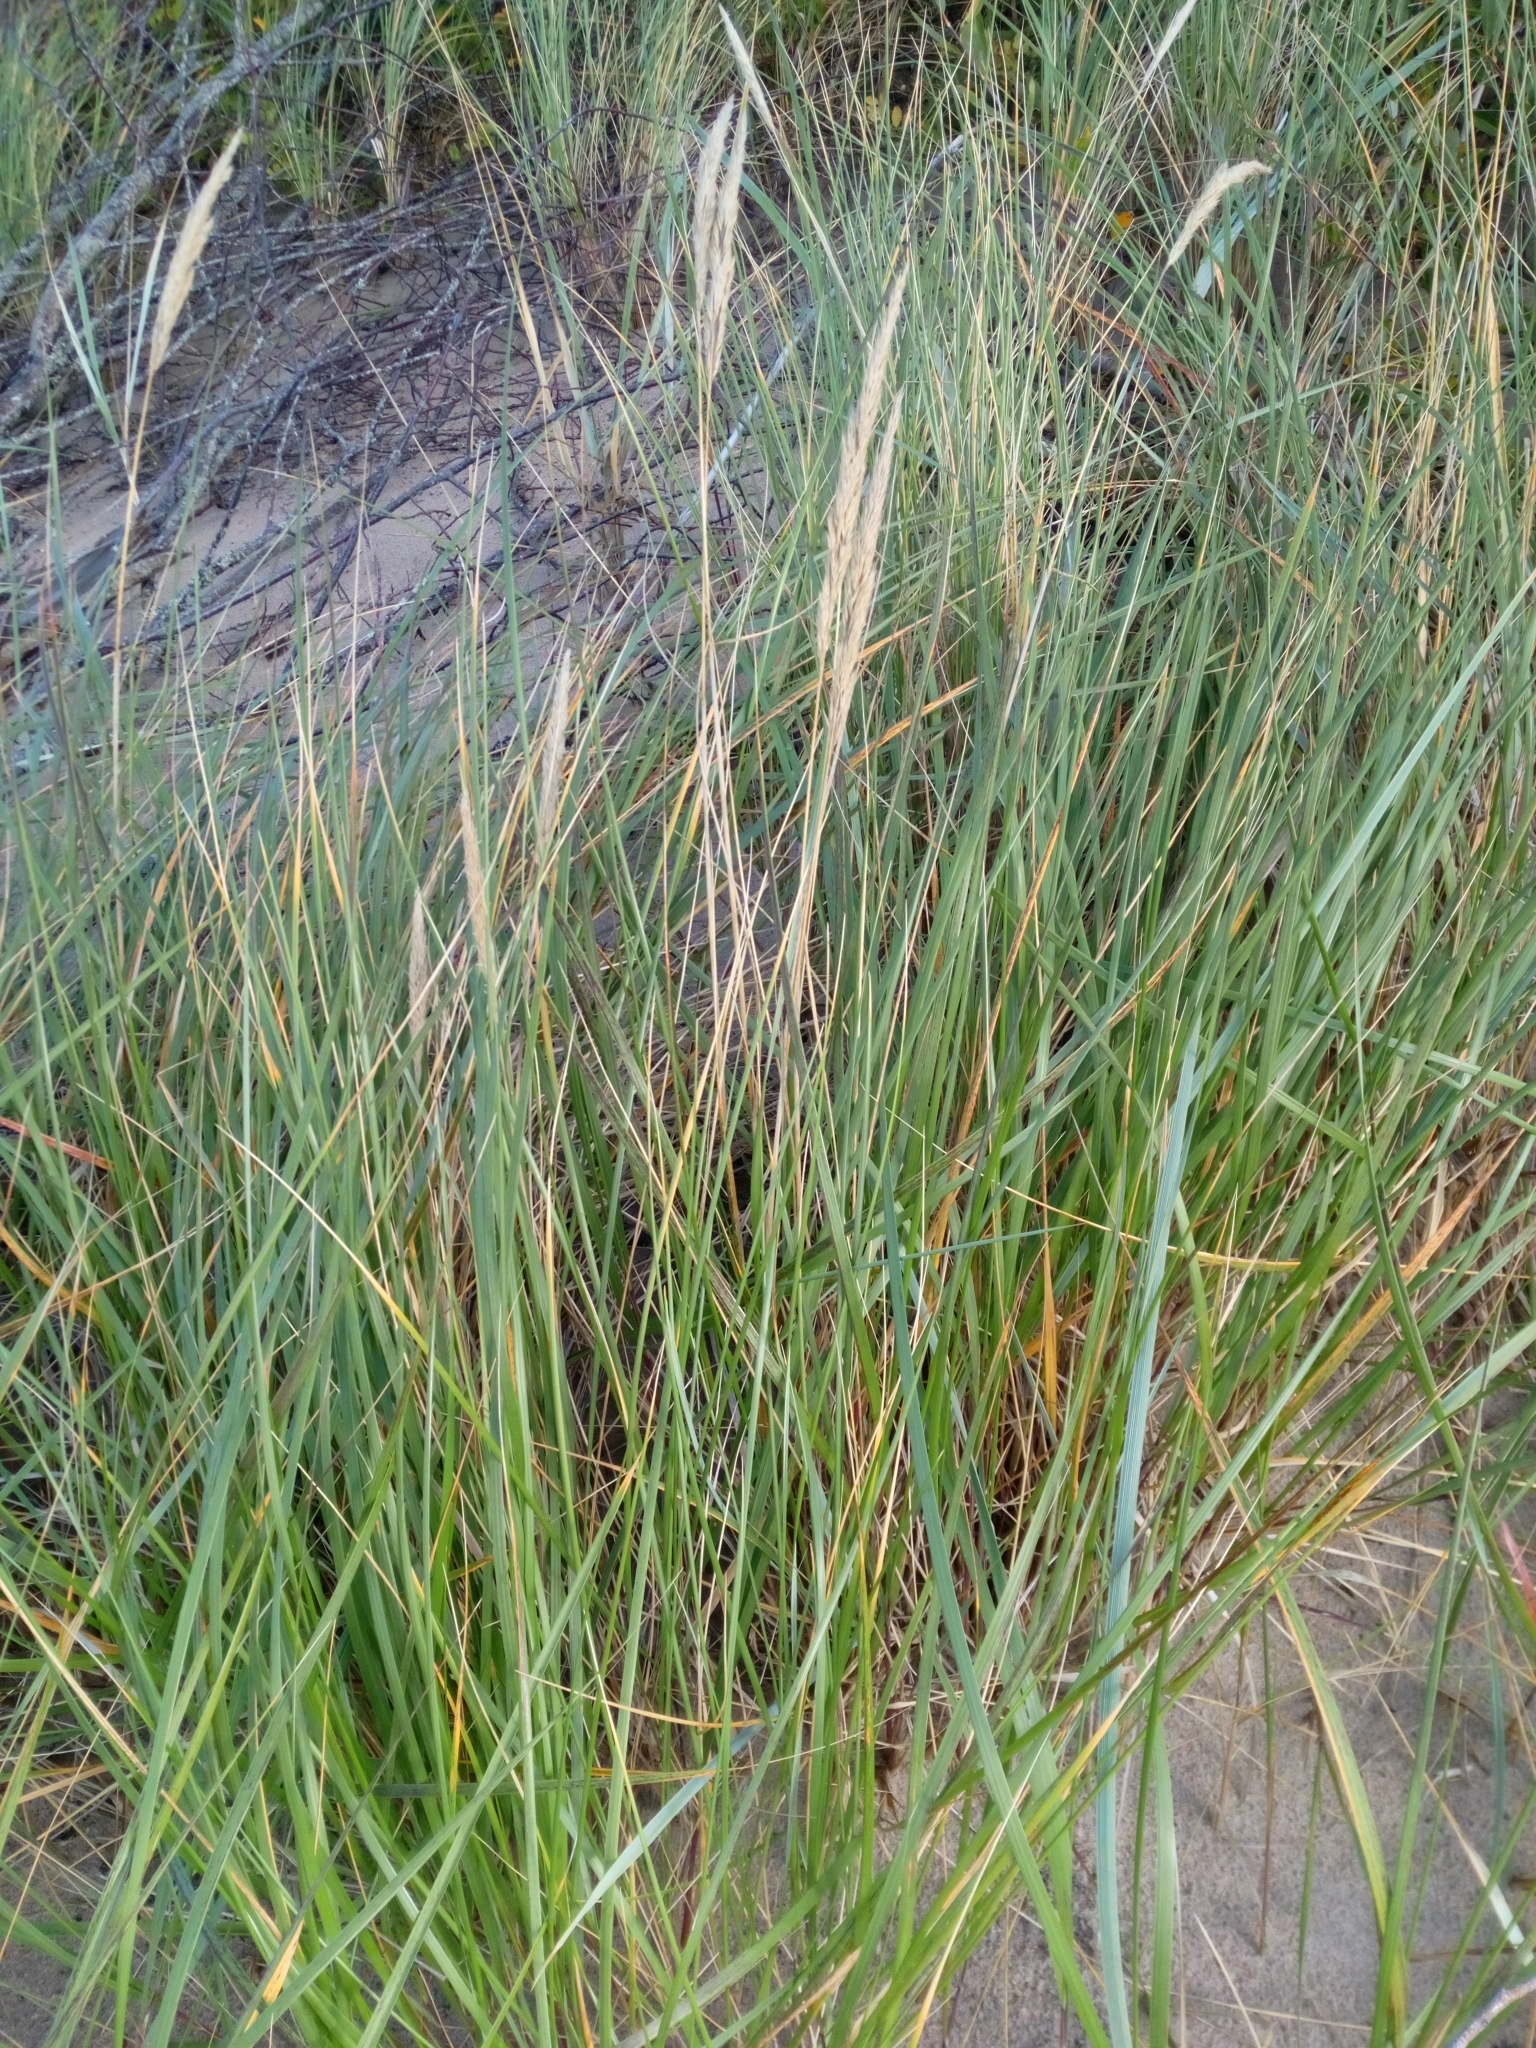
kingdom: Plantae
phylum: Tracheophyta
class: Liliopsida
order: Poales
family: Poaceae
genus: Calamagrostis
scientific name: Calamagrostis arenaria
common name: European beachgrass
